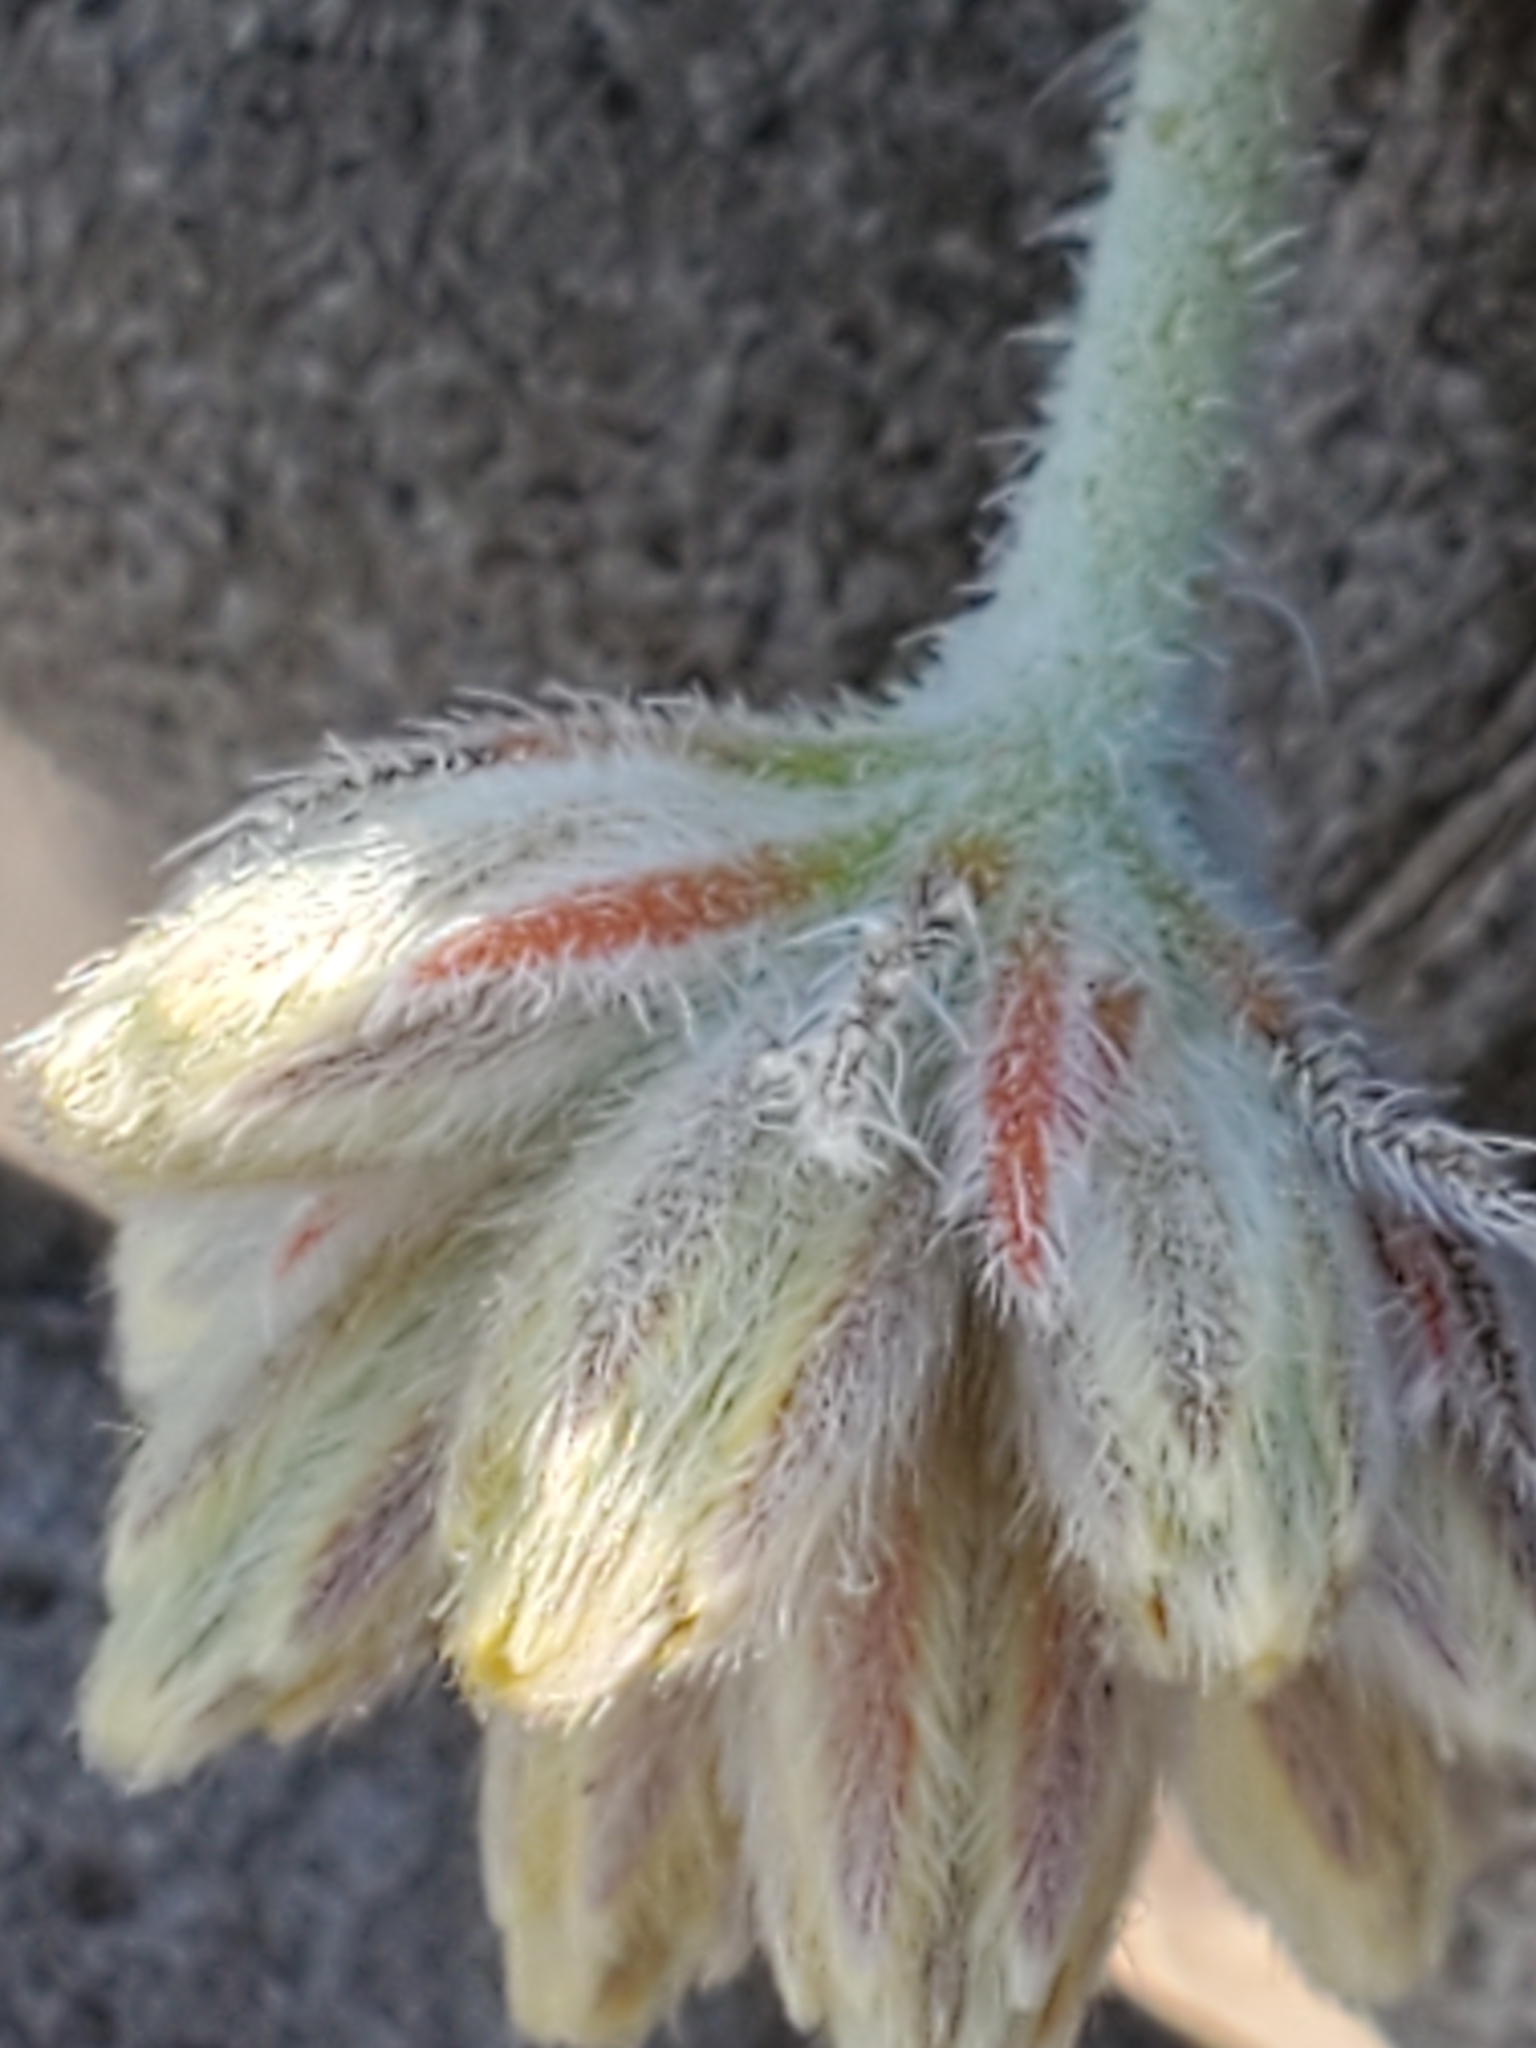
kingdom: Plantae
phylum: Tracheophyta
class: Magnoliopsida
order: Cornales
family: Loasaceae
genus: Cevallia
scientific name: Cevallia sinuata
